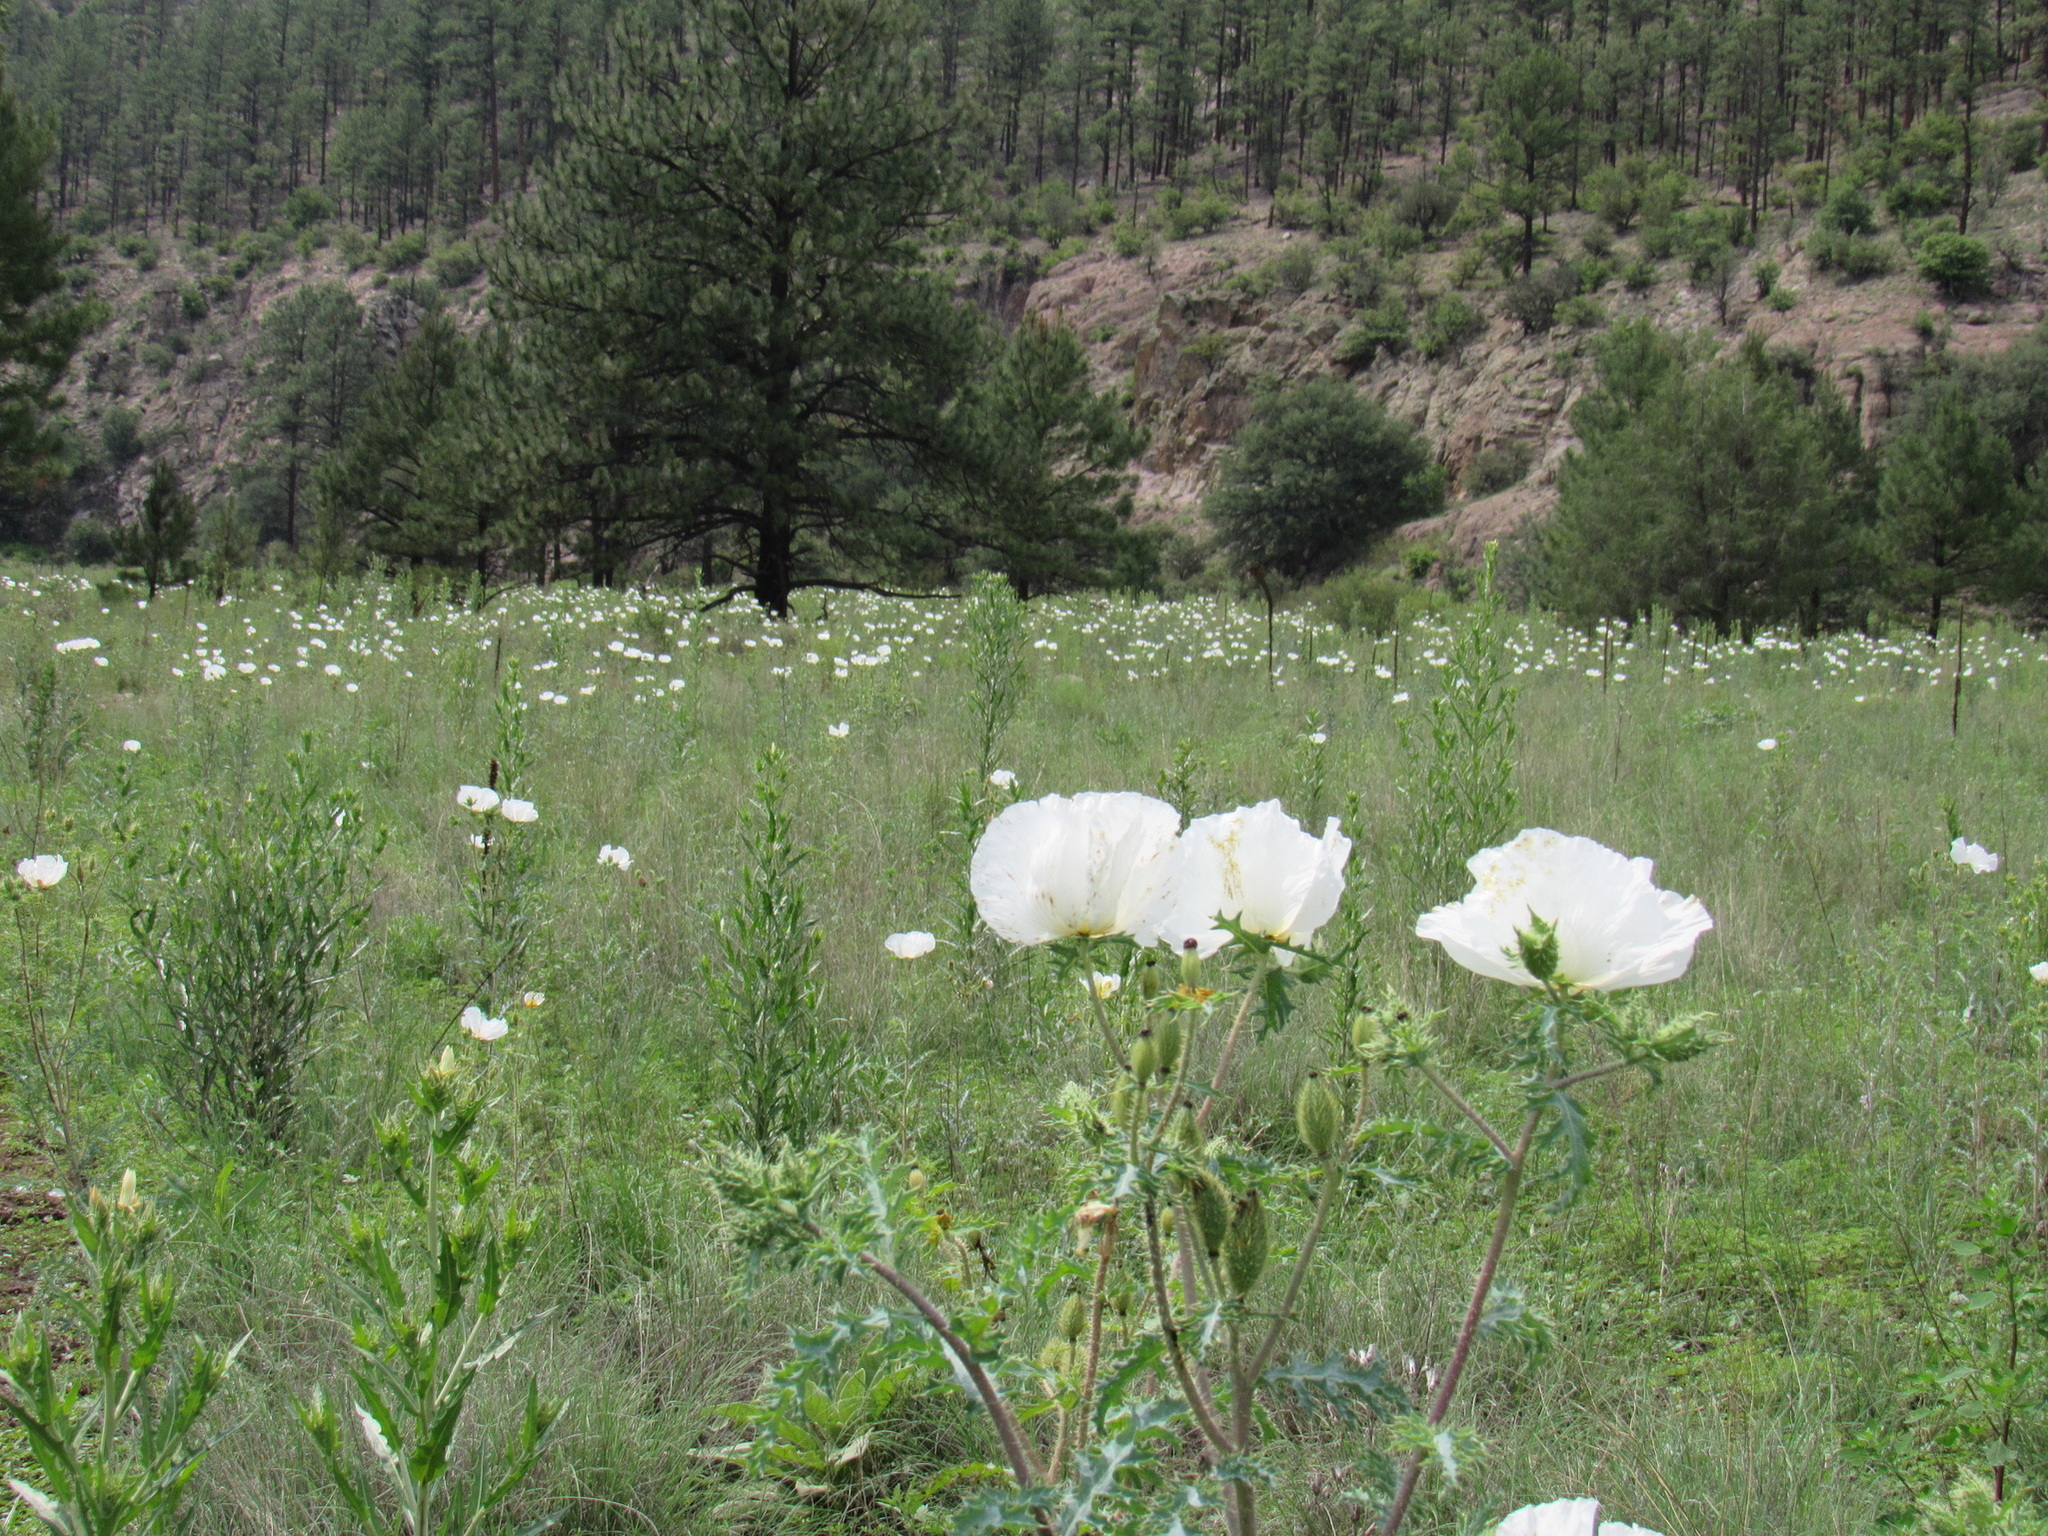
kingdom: Plantae
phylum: Tracheophyta
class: Magnoliopsida
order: Ranunculales
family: Papaveraceae
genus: Argemone
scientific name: Argemone pleiacantha
